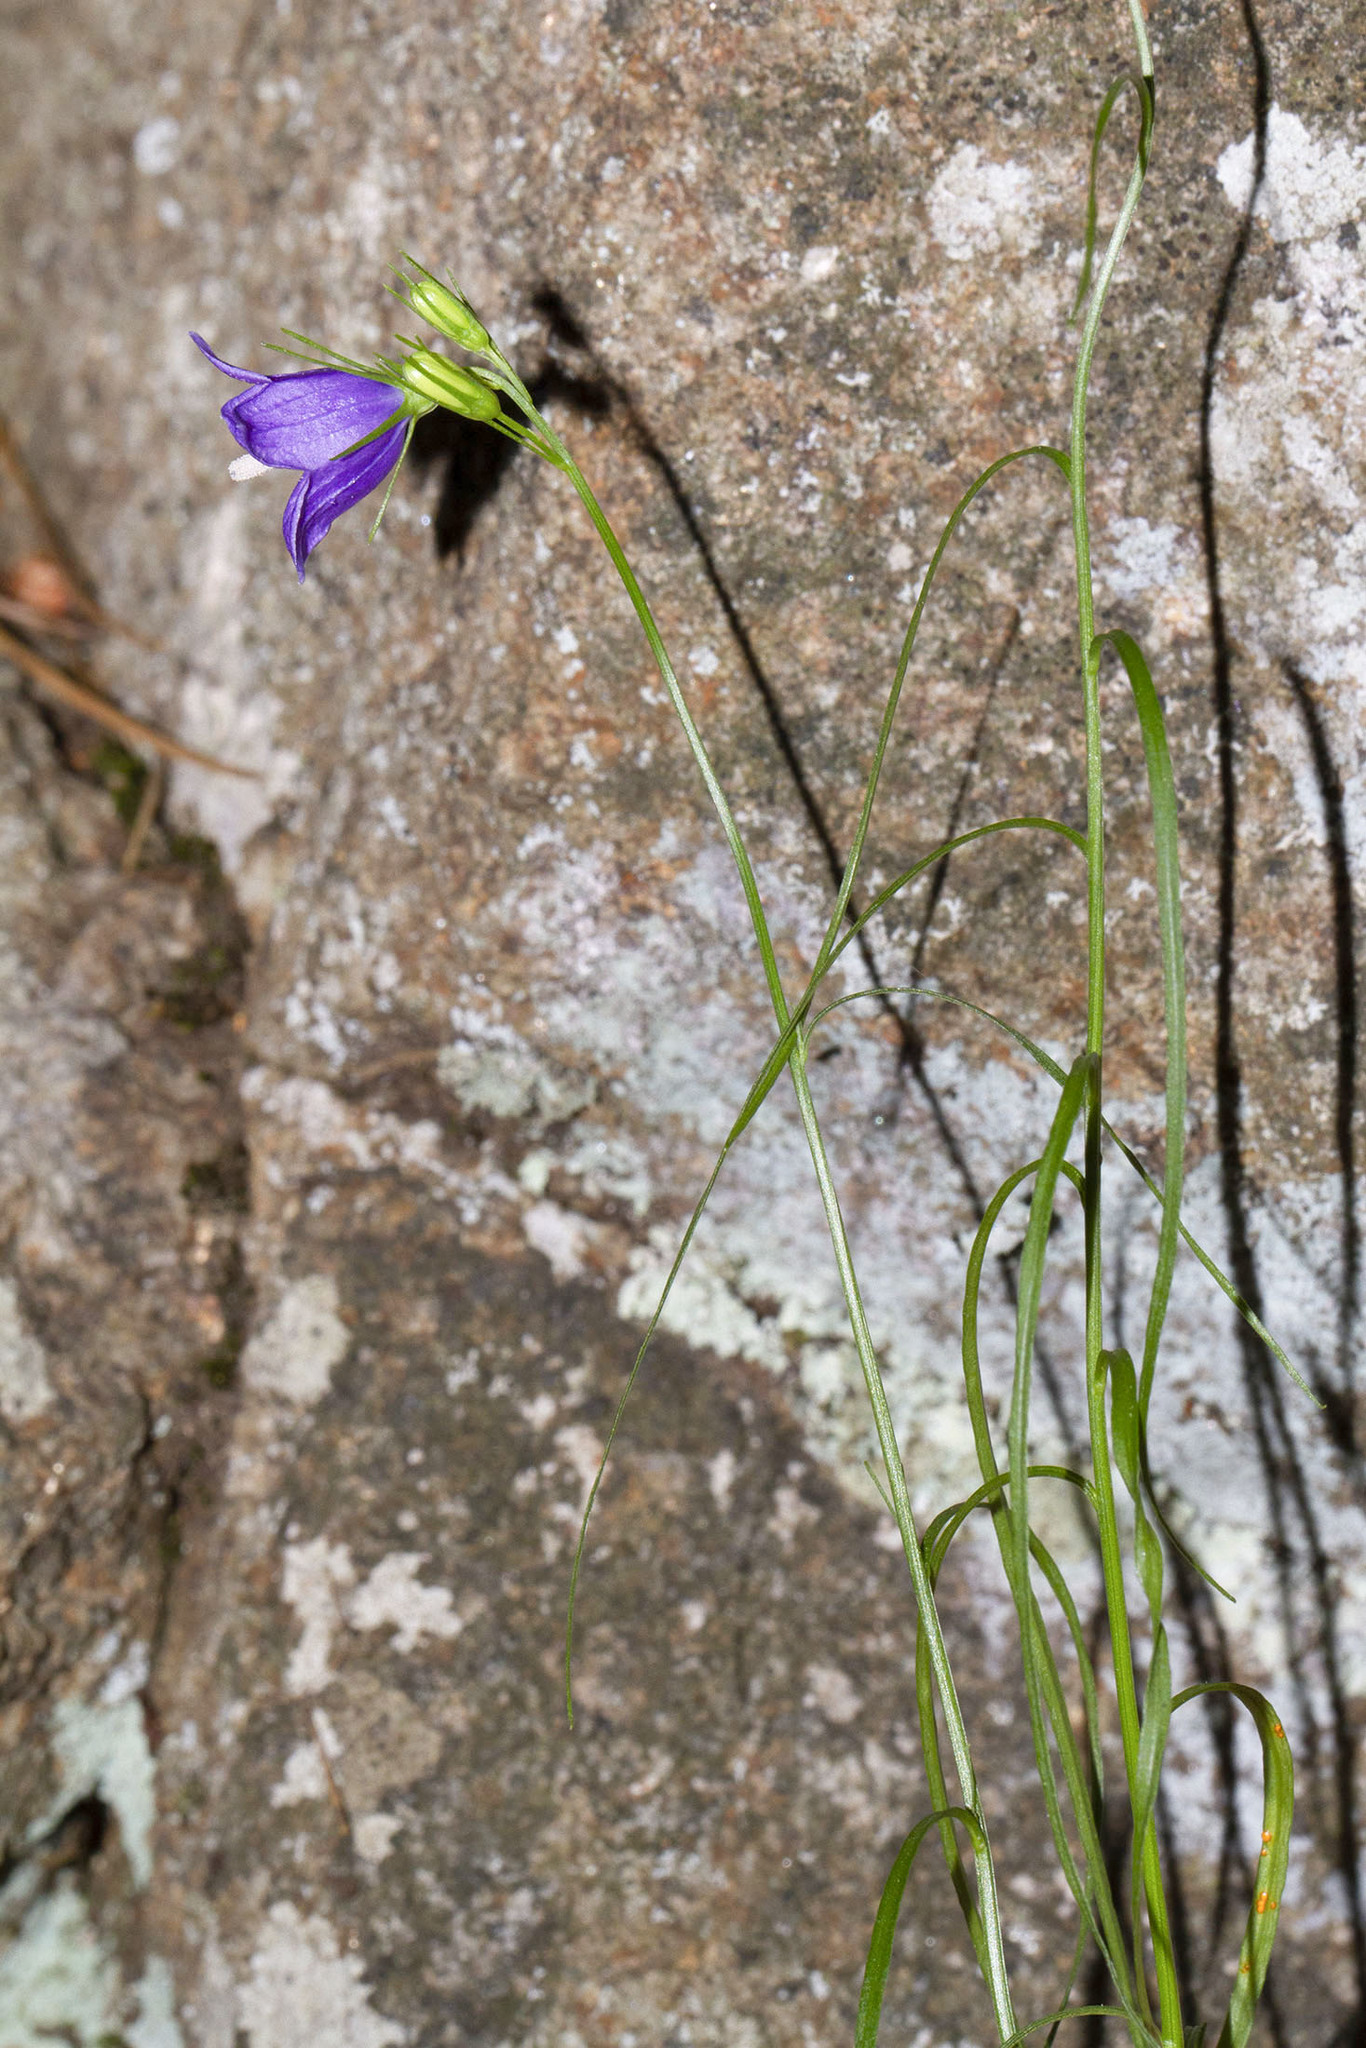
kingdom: Plantae
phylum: Tracheophyta
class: Magnoliopsida
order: Asterales
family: Campanulaceae
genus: Campanula
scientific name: Campanula intercedens
